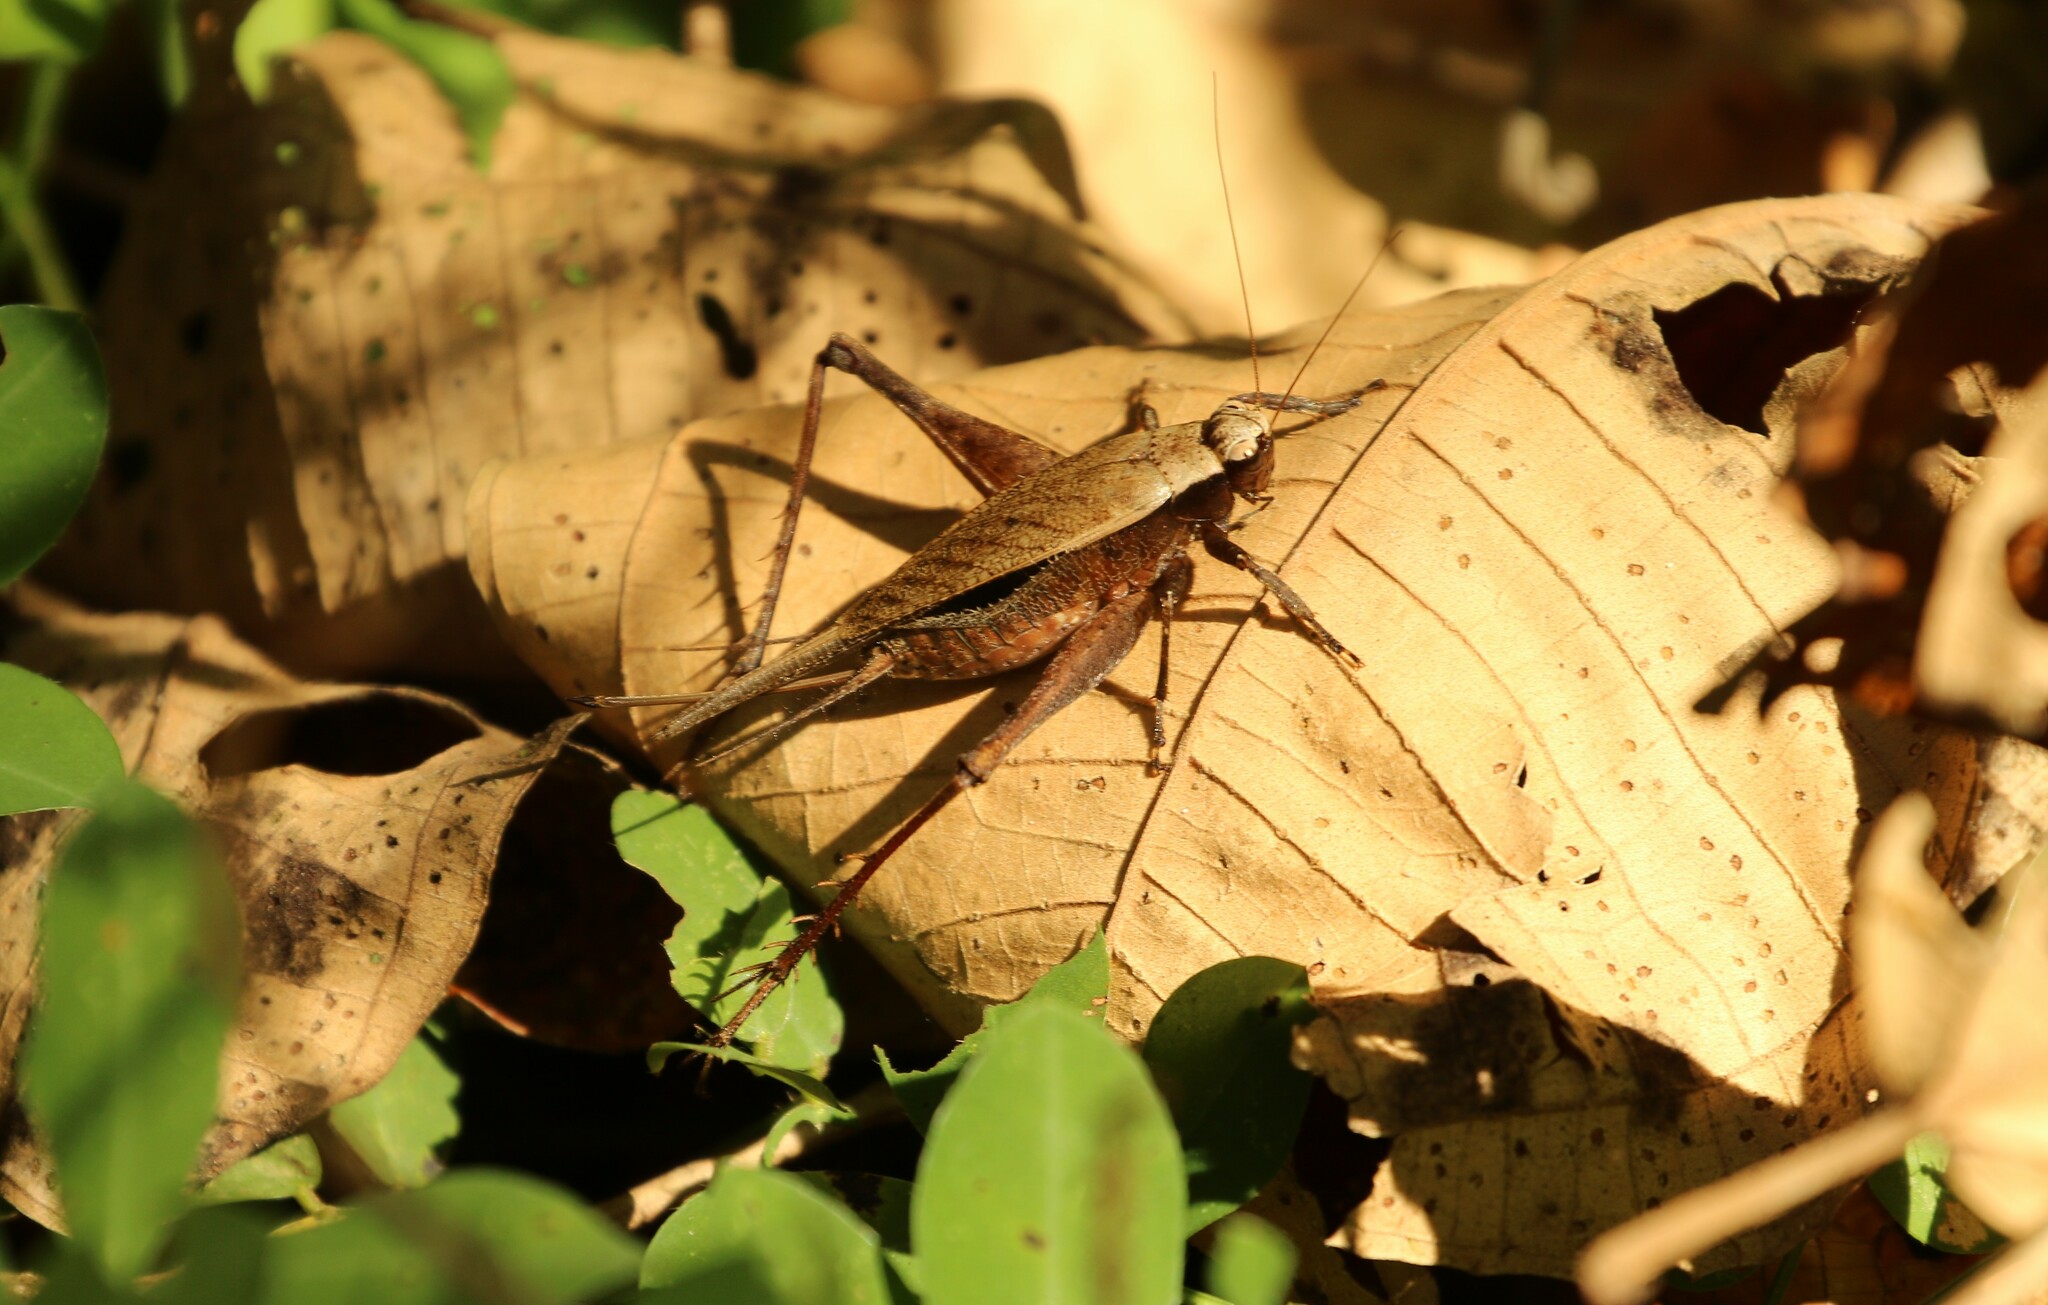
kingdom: Animalia
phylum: Arthropoda
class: Insecta
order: Orthoptera
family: Gryllidae
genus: Eneoptera
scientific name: Eneoptera surinamensis
